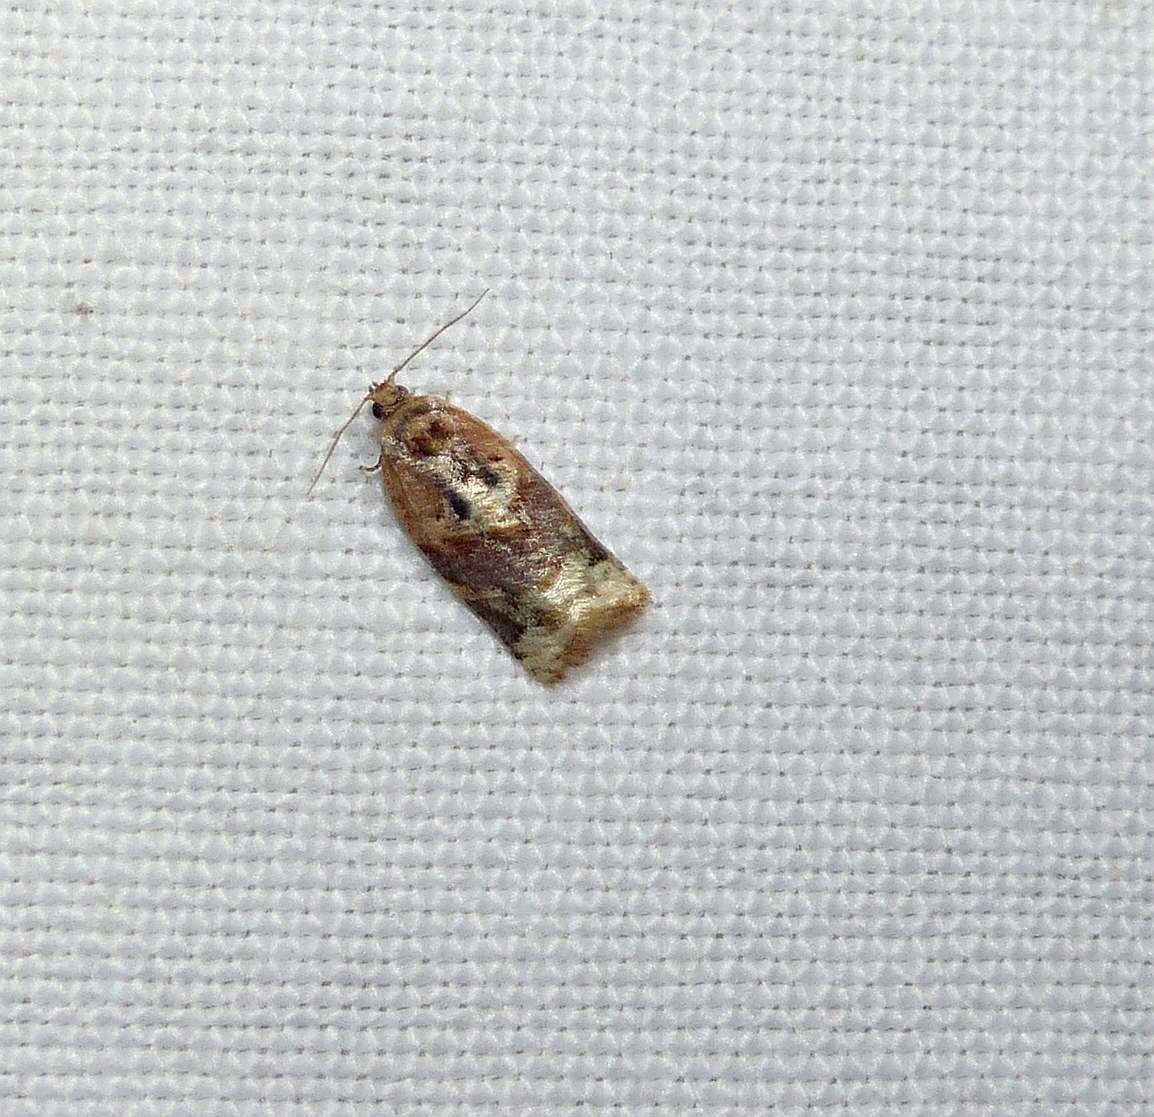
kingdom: Animalia
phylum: Arthropoda
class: Insecta
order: Lepidoptera
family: Tortricidae
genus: Argyrotaenia
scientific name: Argyrotaenia velutinana
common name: Red-banded leafroller moth
